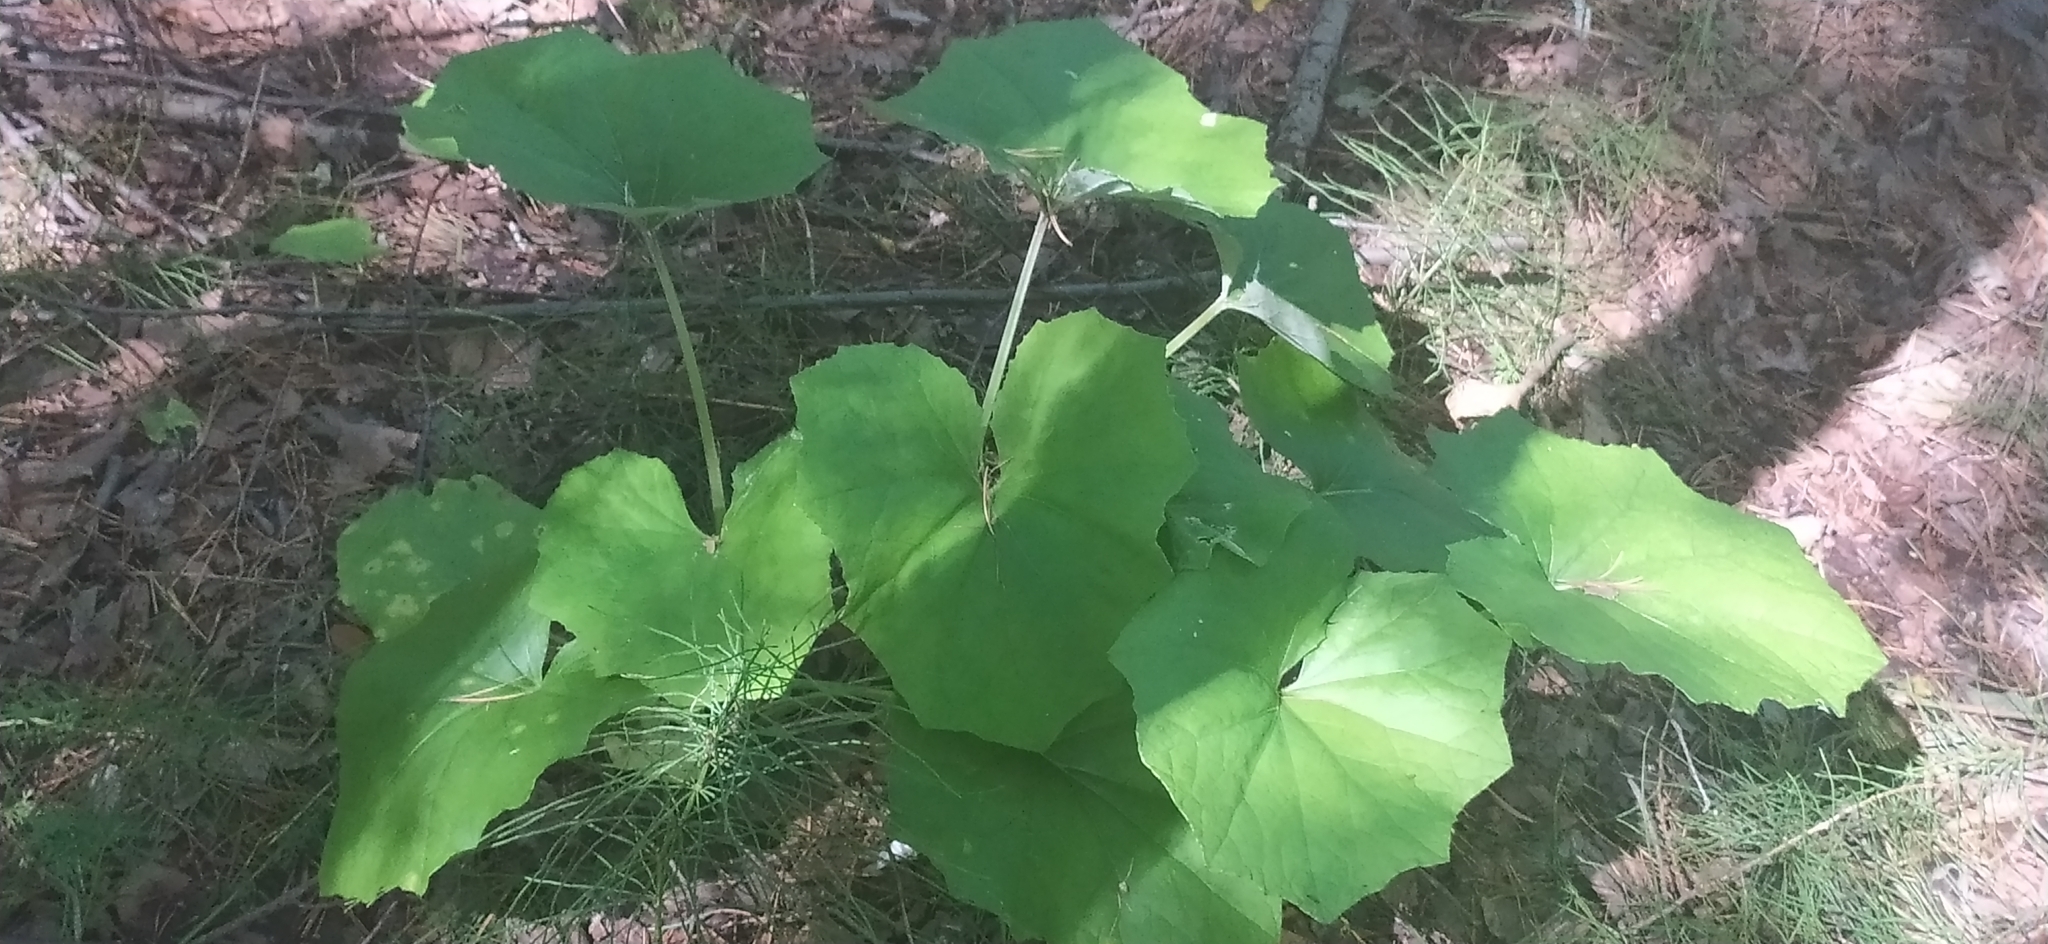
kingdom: Plantae
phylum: Tracheophyta
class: Magnoliopsida
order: Asterales
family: Asteraceae
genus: Tussilago
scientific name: Tussilago farfara
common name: Coltsfoot
